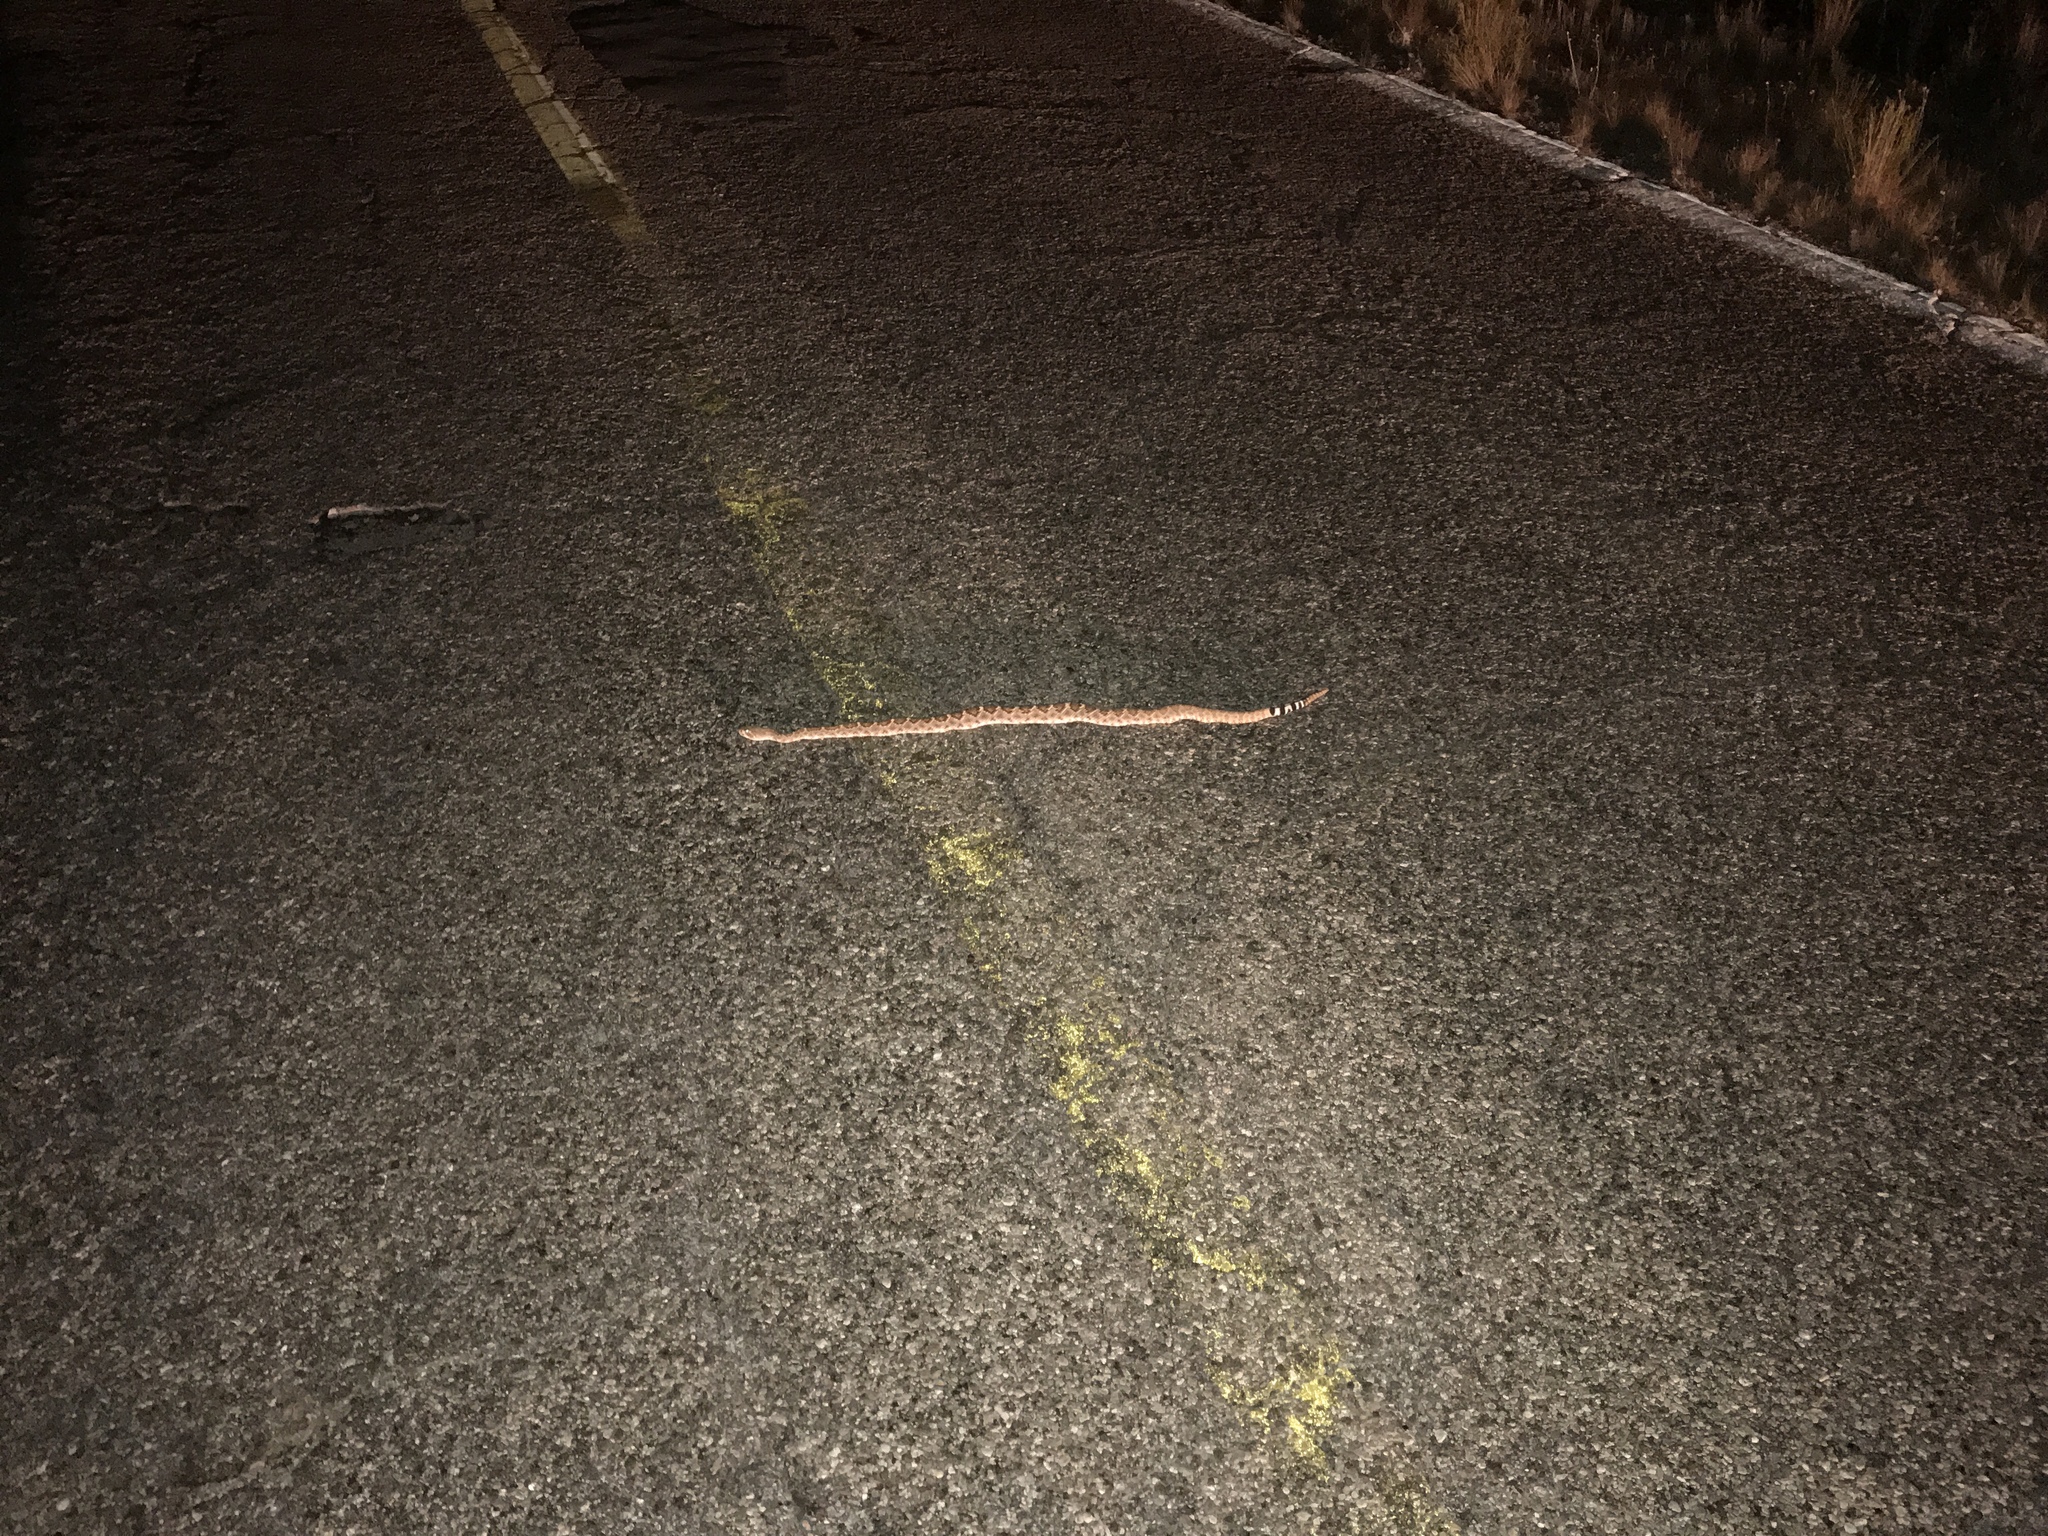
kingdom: Animalia
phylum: Chordata
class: Squamata
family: Viperidae
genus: Crotalus
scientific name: Crotalus atrox
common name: Western diamond-backed rattlesnake
